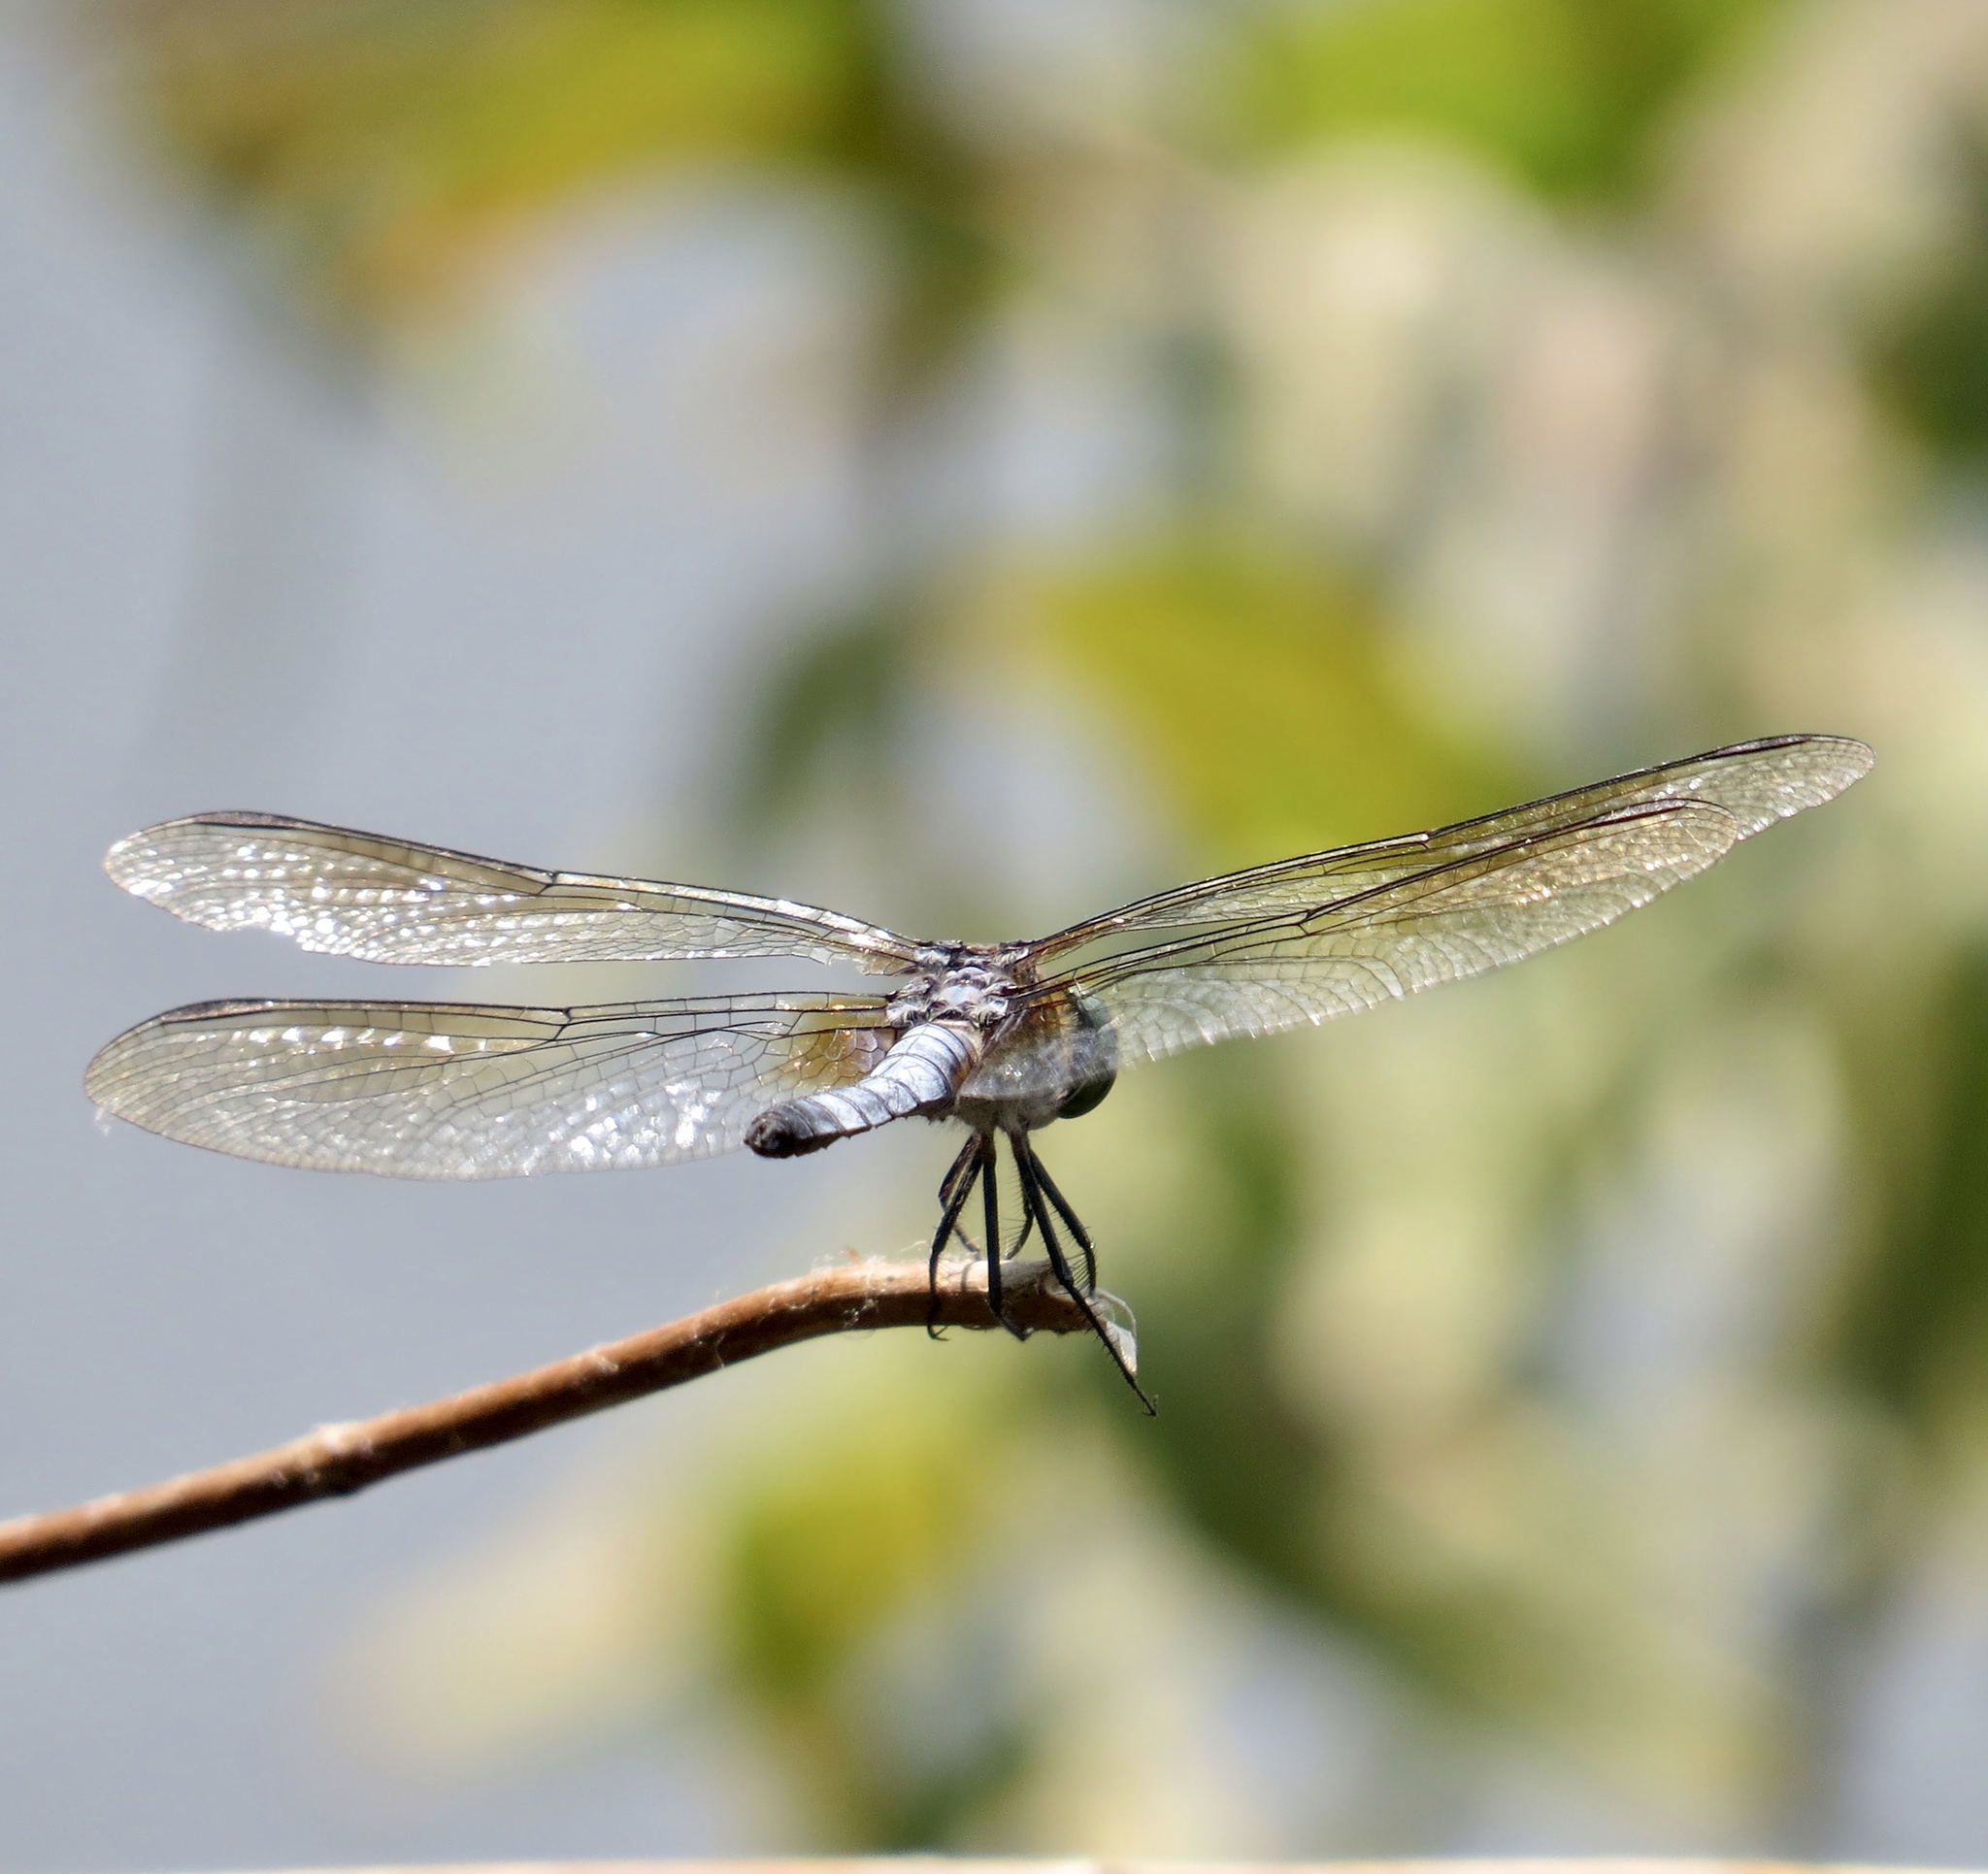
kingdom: Animalia
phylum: Arthropoda
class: Insecta
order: Odonata
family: Libellulidae
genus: Pachydiplax
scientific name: Pachydiplax longipennis
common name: Blue dasher
